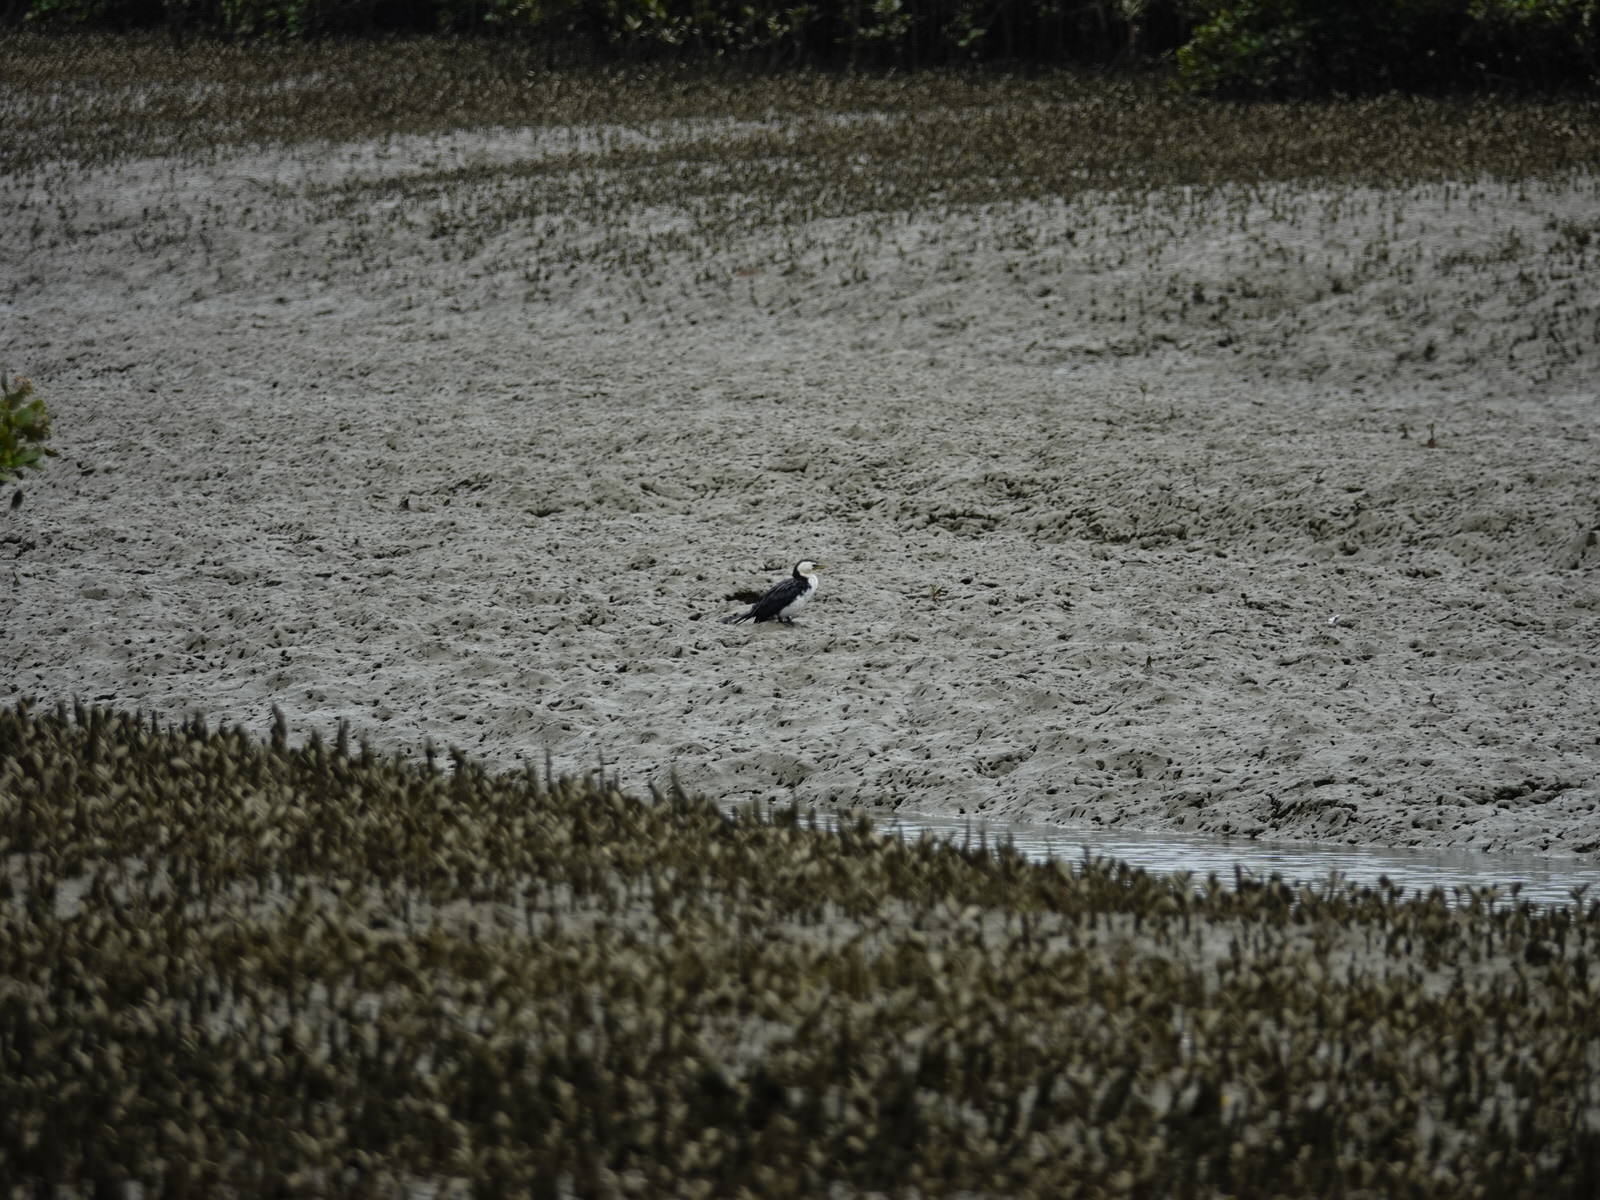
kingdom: Animalia
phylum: Chordata
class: Aves
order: Suliformes
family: Phalacrocoracidae
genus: Microcarbo
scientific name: Microcarbo melanoleucos
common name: Little pied cormorant
